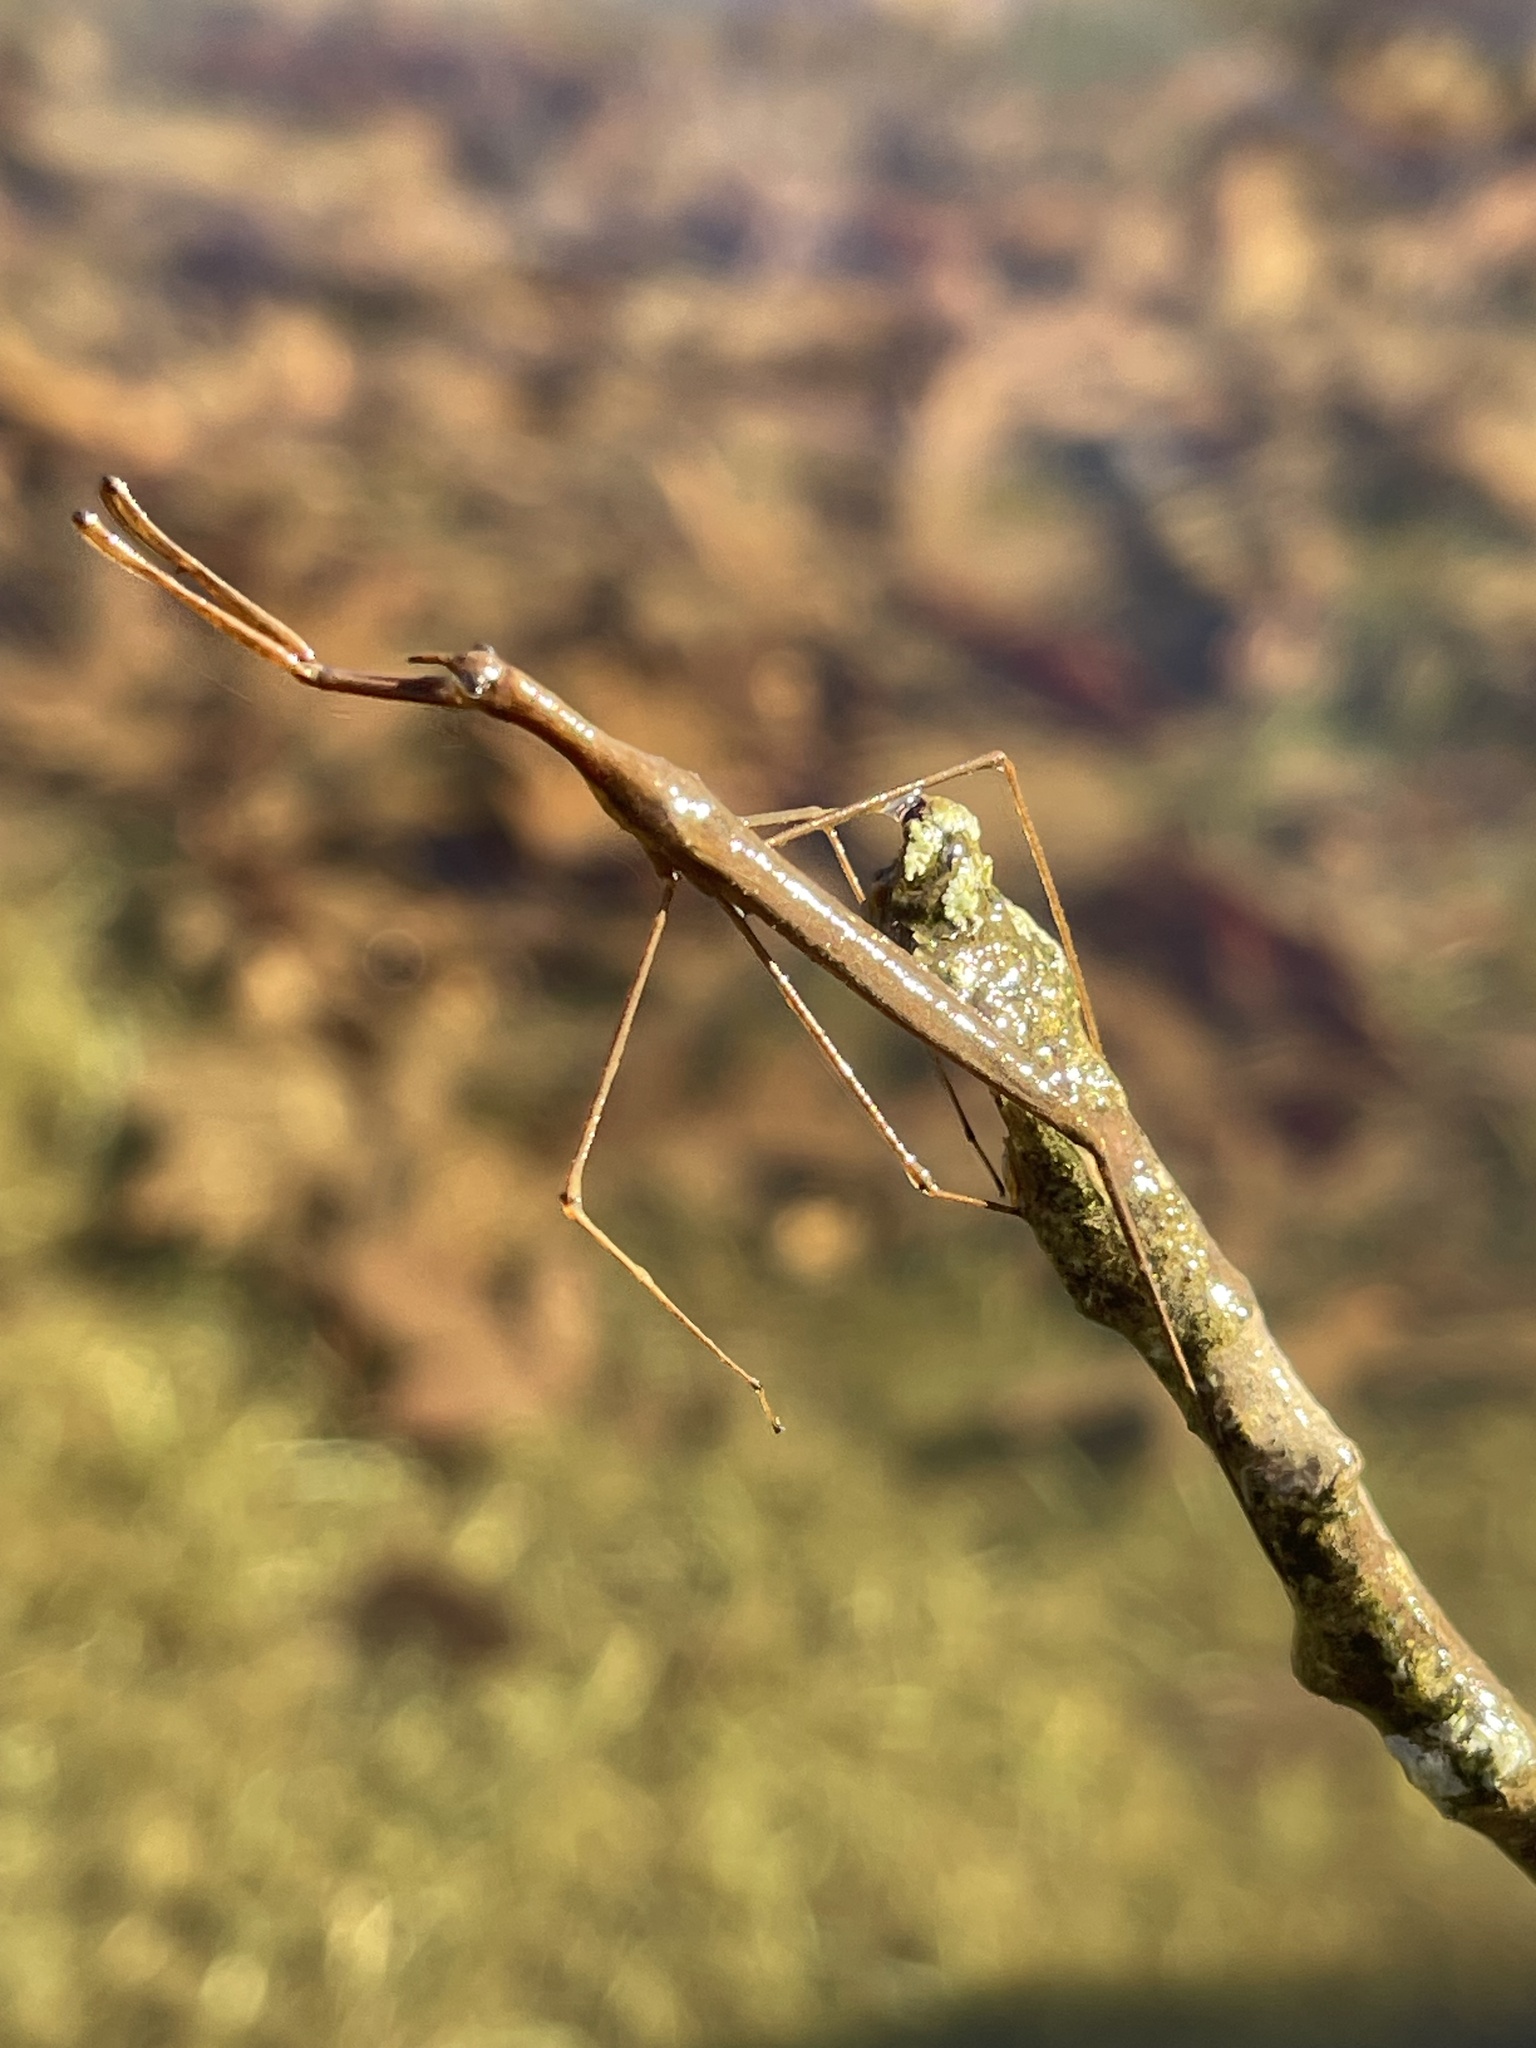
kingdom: Animalia
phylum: Arthropoda
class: Insecta
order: Hemiptera
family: Nepidae
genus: Ranatra
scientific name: Ranatra
